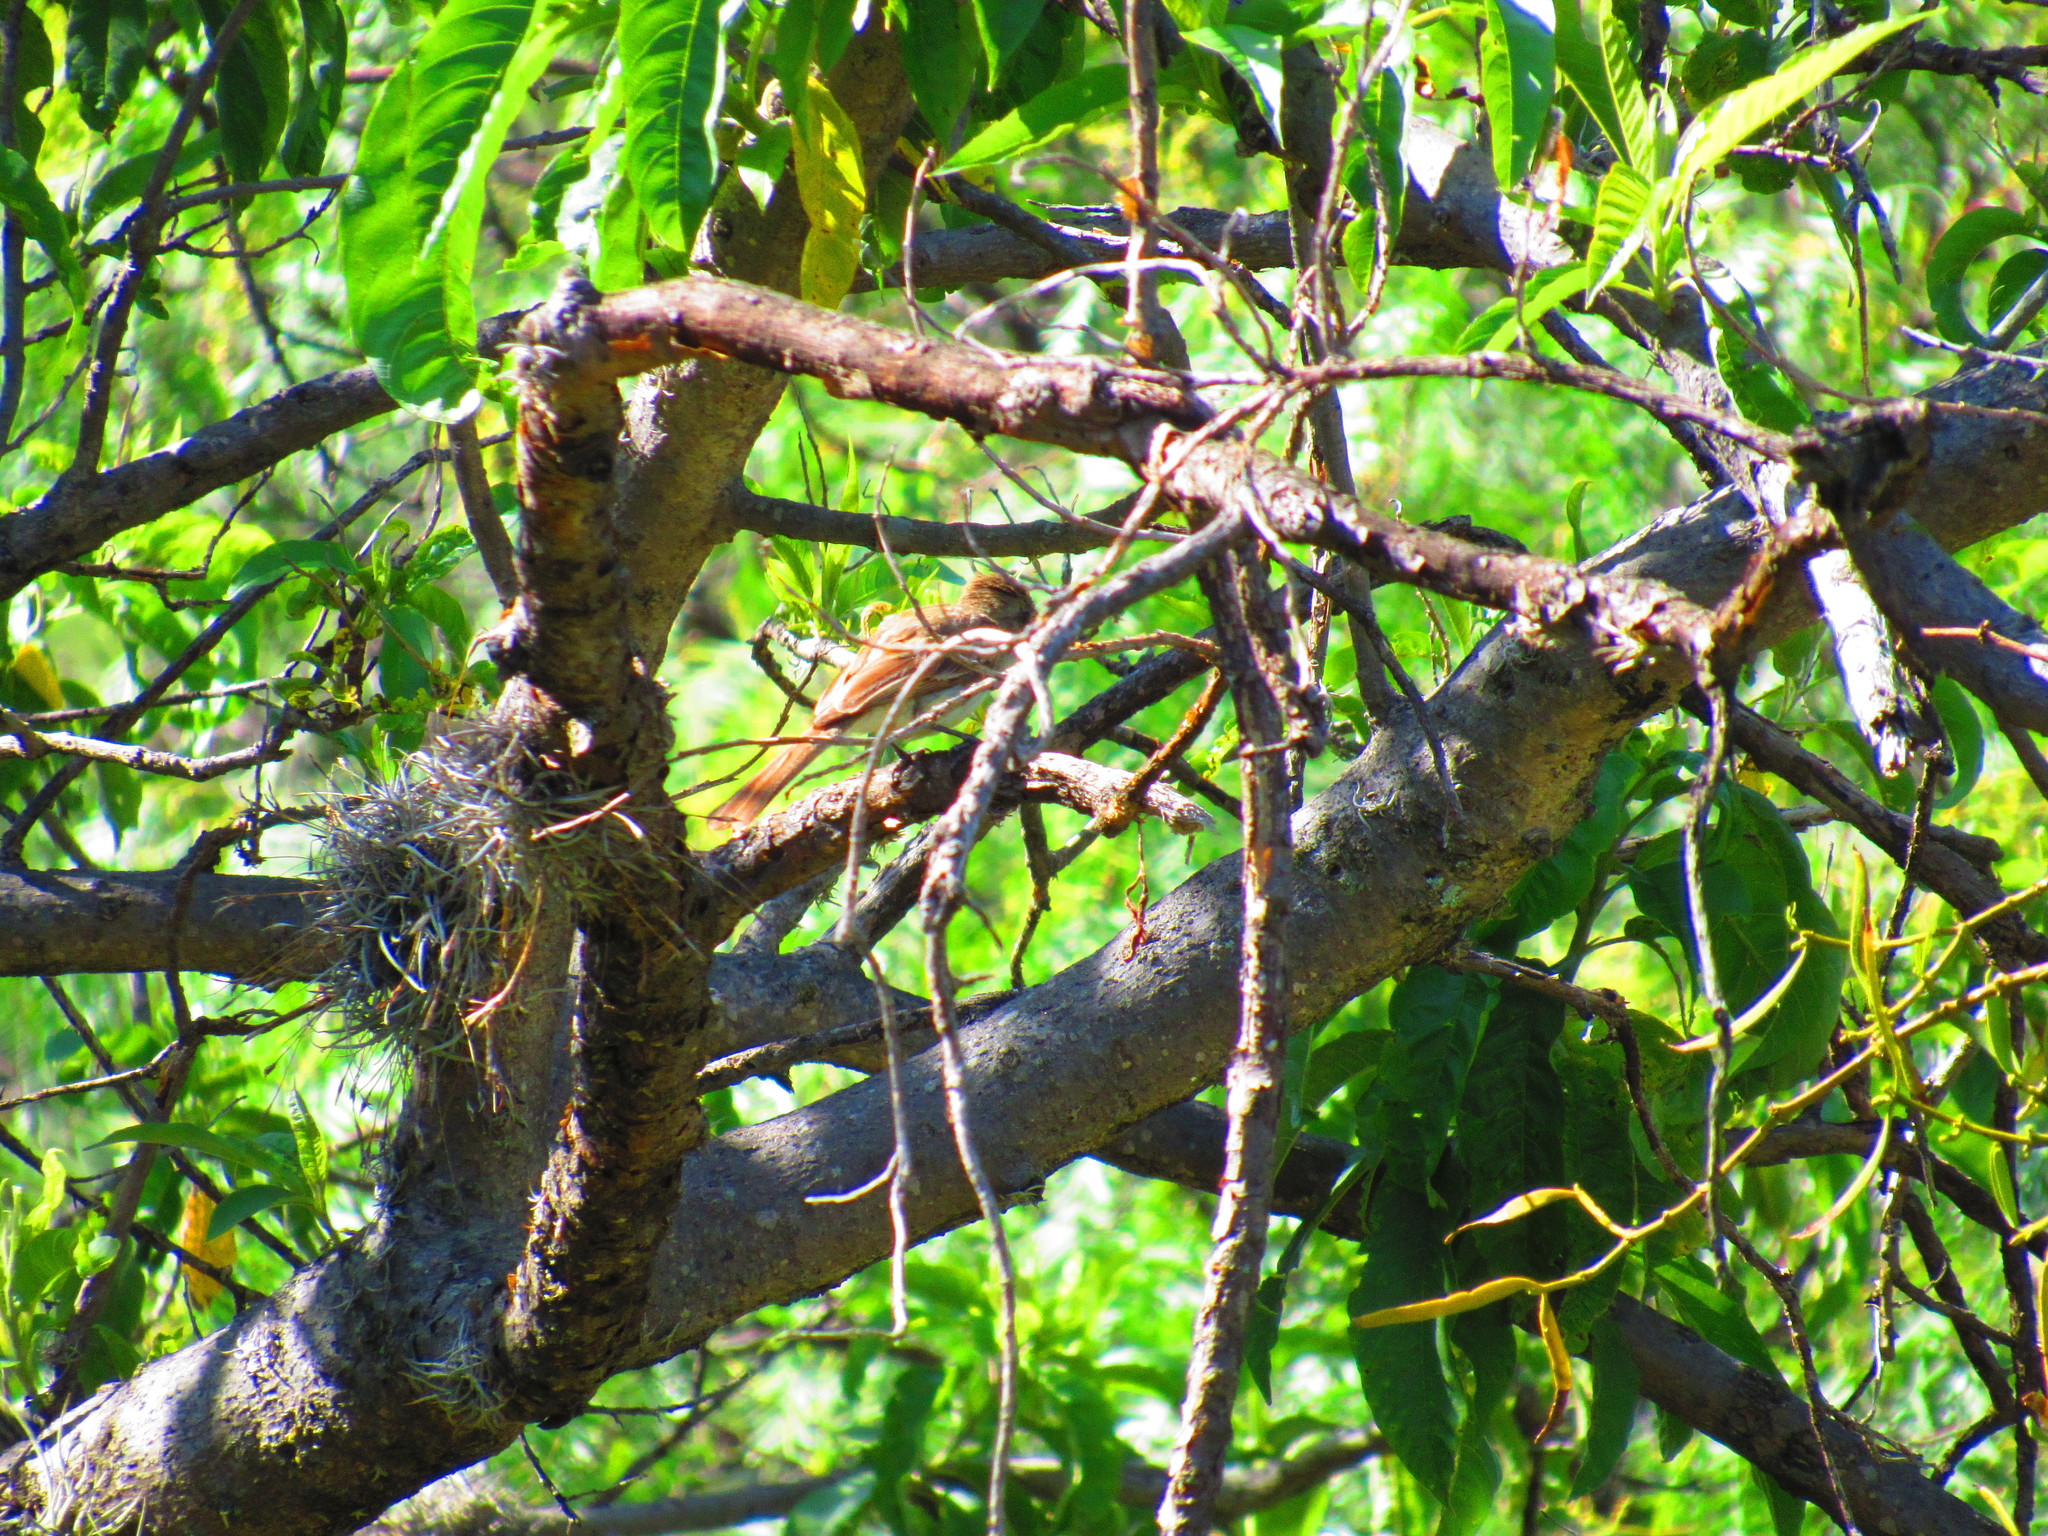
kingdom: Animalia
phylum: Chordata
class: Aves
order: Passeriformes
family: Tyrannidae
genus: Myiarchus
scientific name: Myiarchus cinerascens
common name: Ash-throated flycatcher
